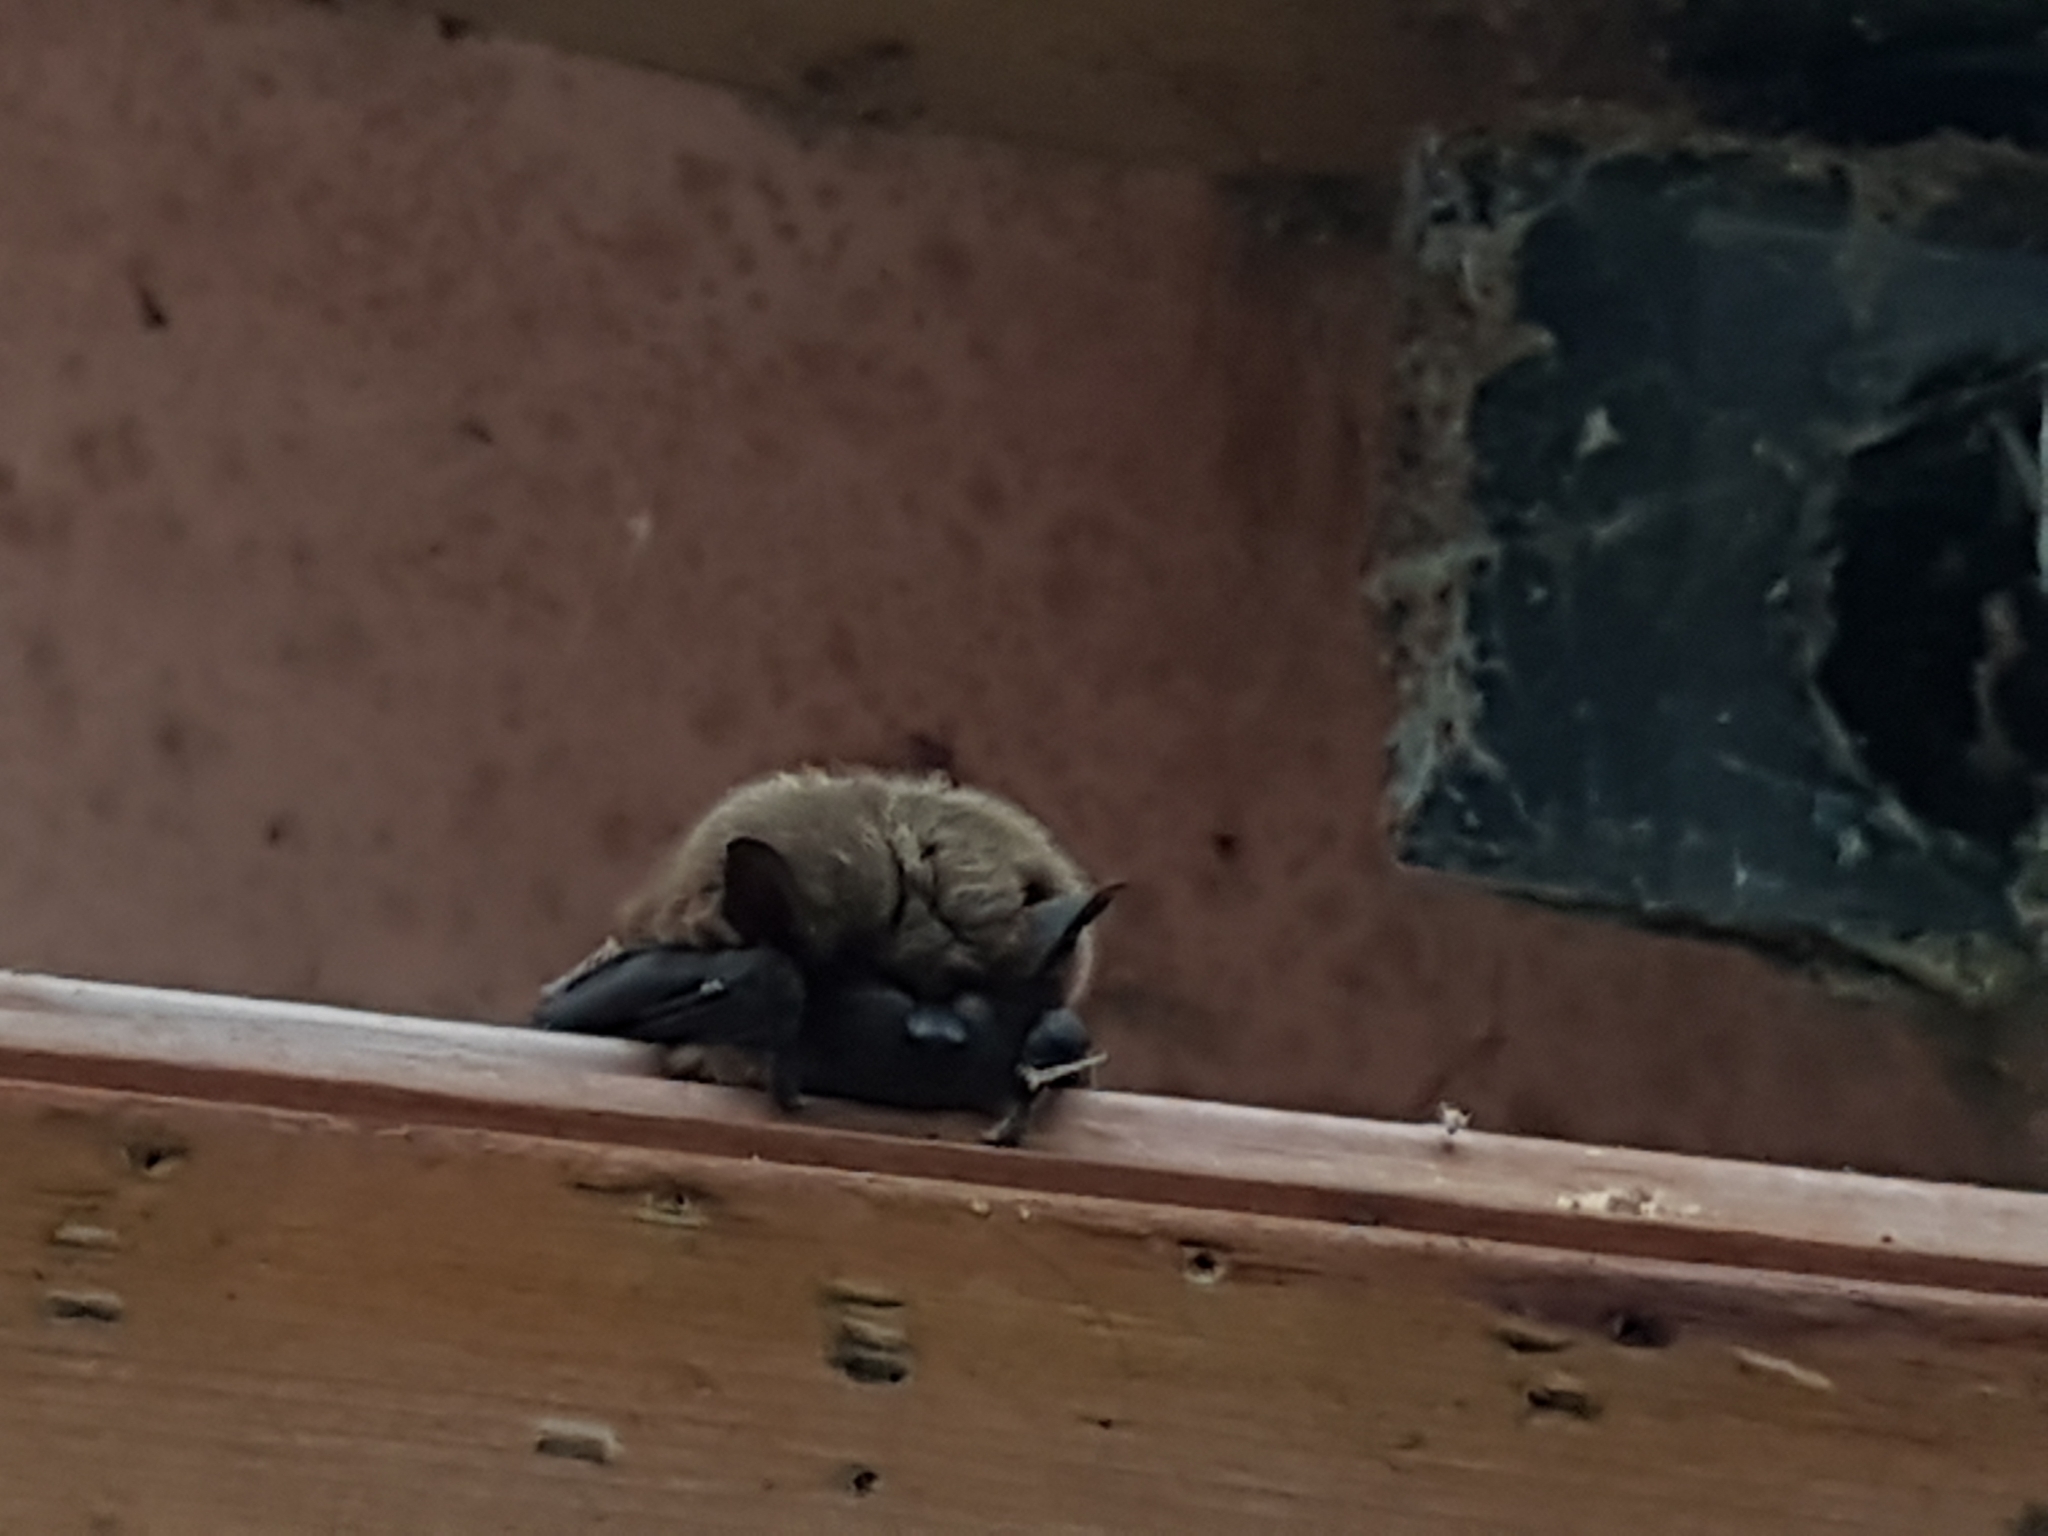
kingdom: Animalia
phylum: Chordata
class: Mammalia
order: Chiroptera
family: Vespertilionidae
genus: Eptesicus
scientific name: Eptesicus fuscus
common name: Big brown bat
